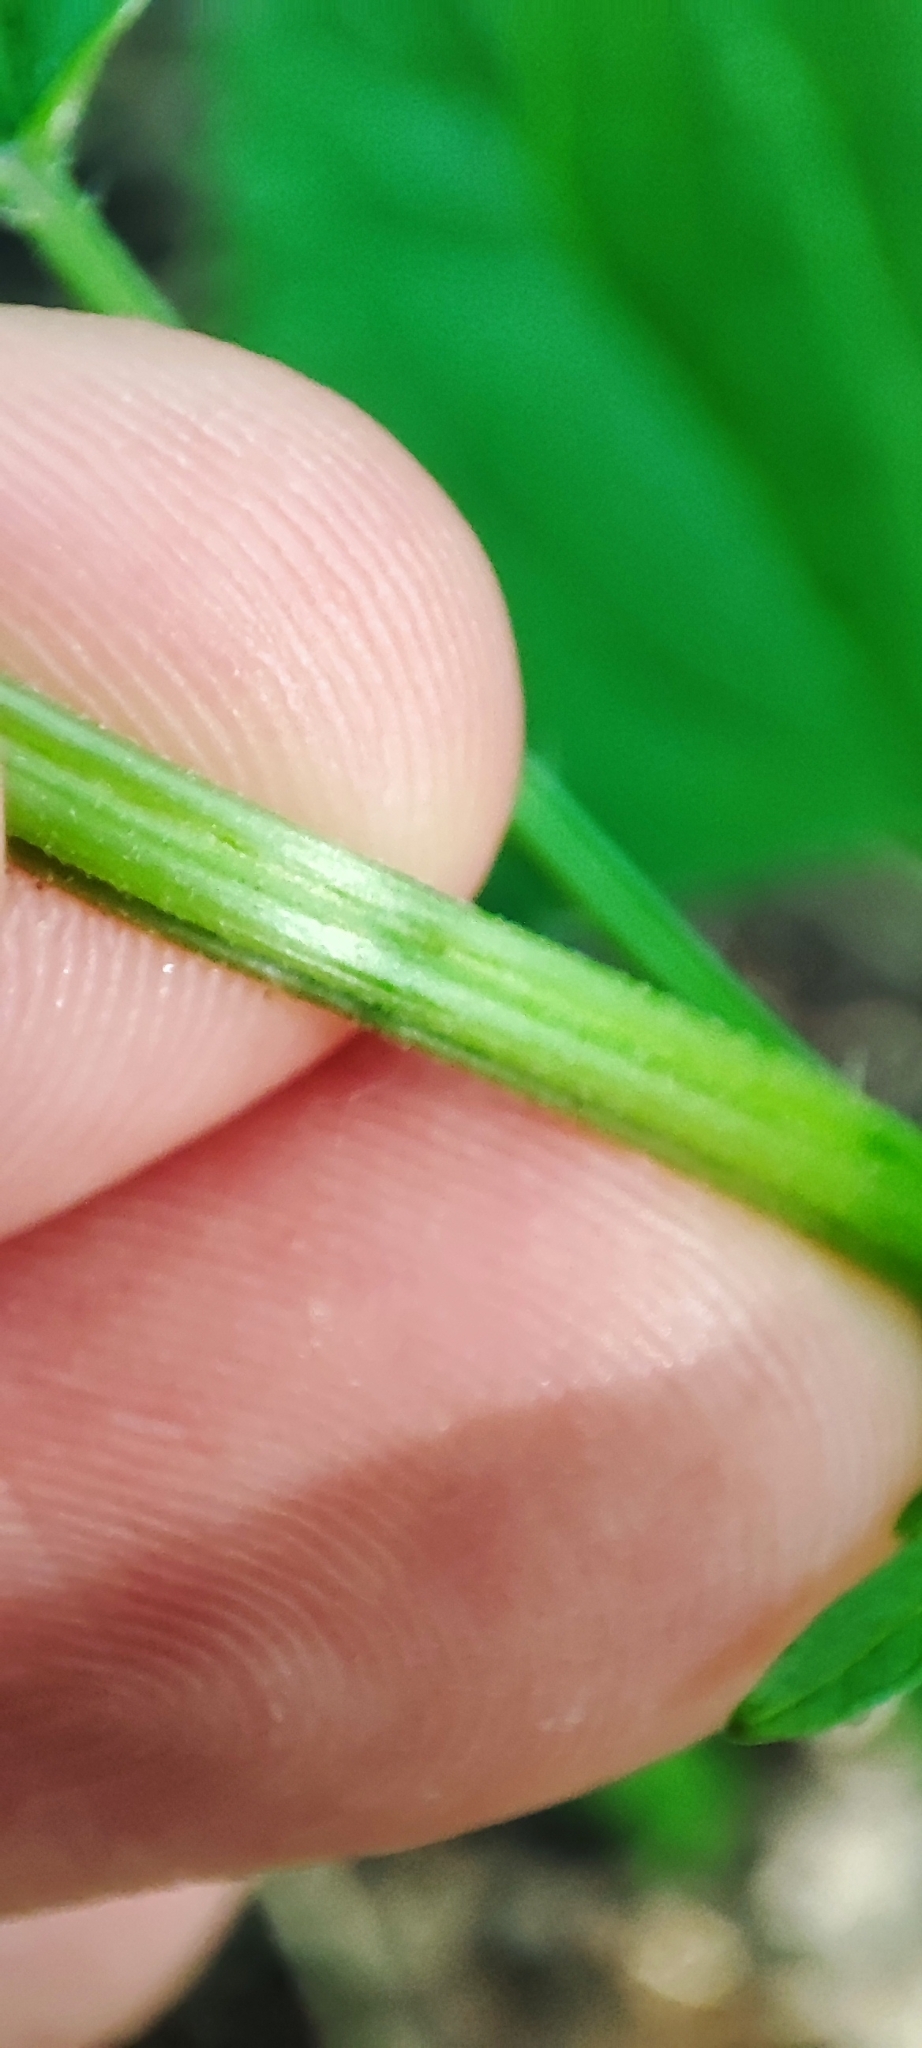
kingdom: Plantae
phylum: Tracheophyta
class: Magnoliopsida
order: Rosales
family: Urticaceae
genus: Urtica
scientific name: Urtica dioica
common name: Common nettle
